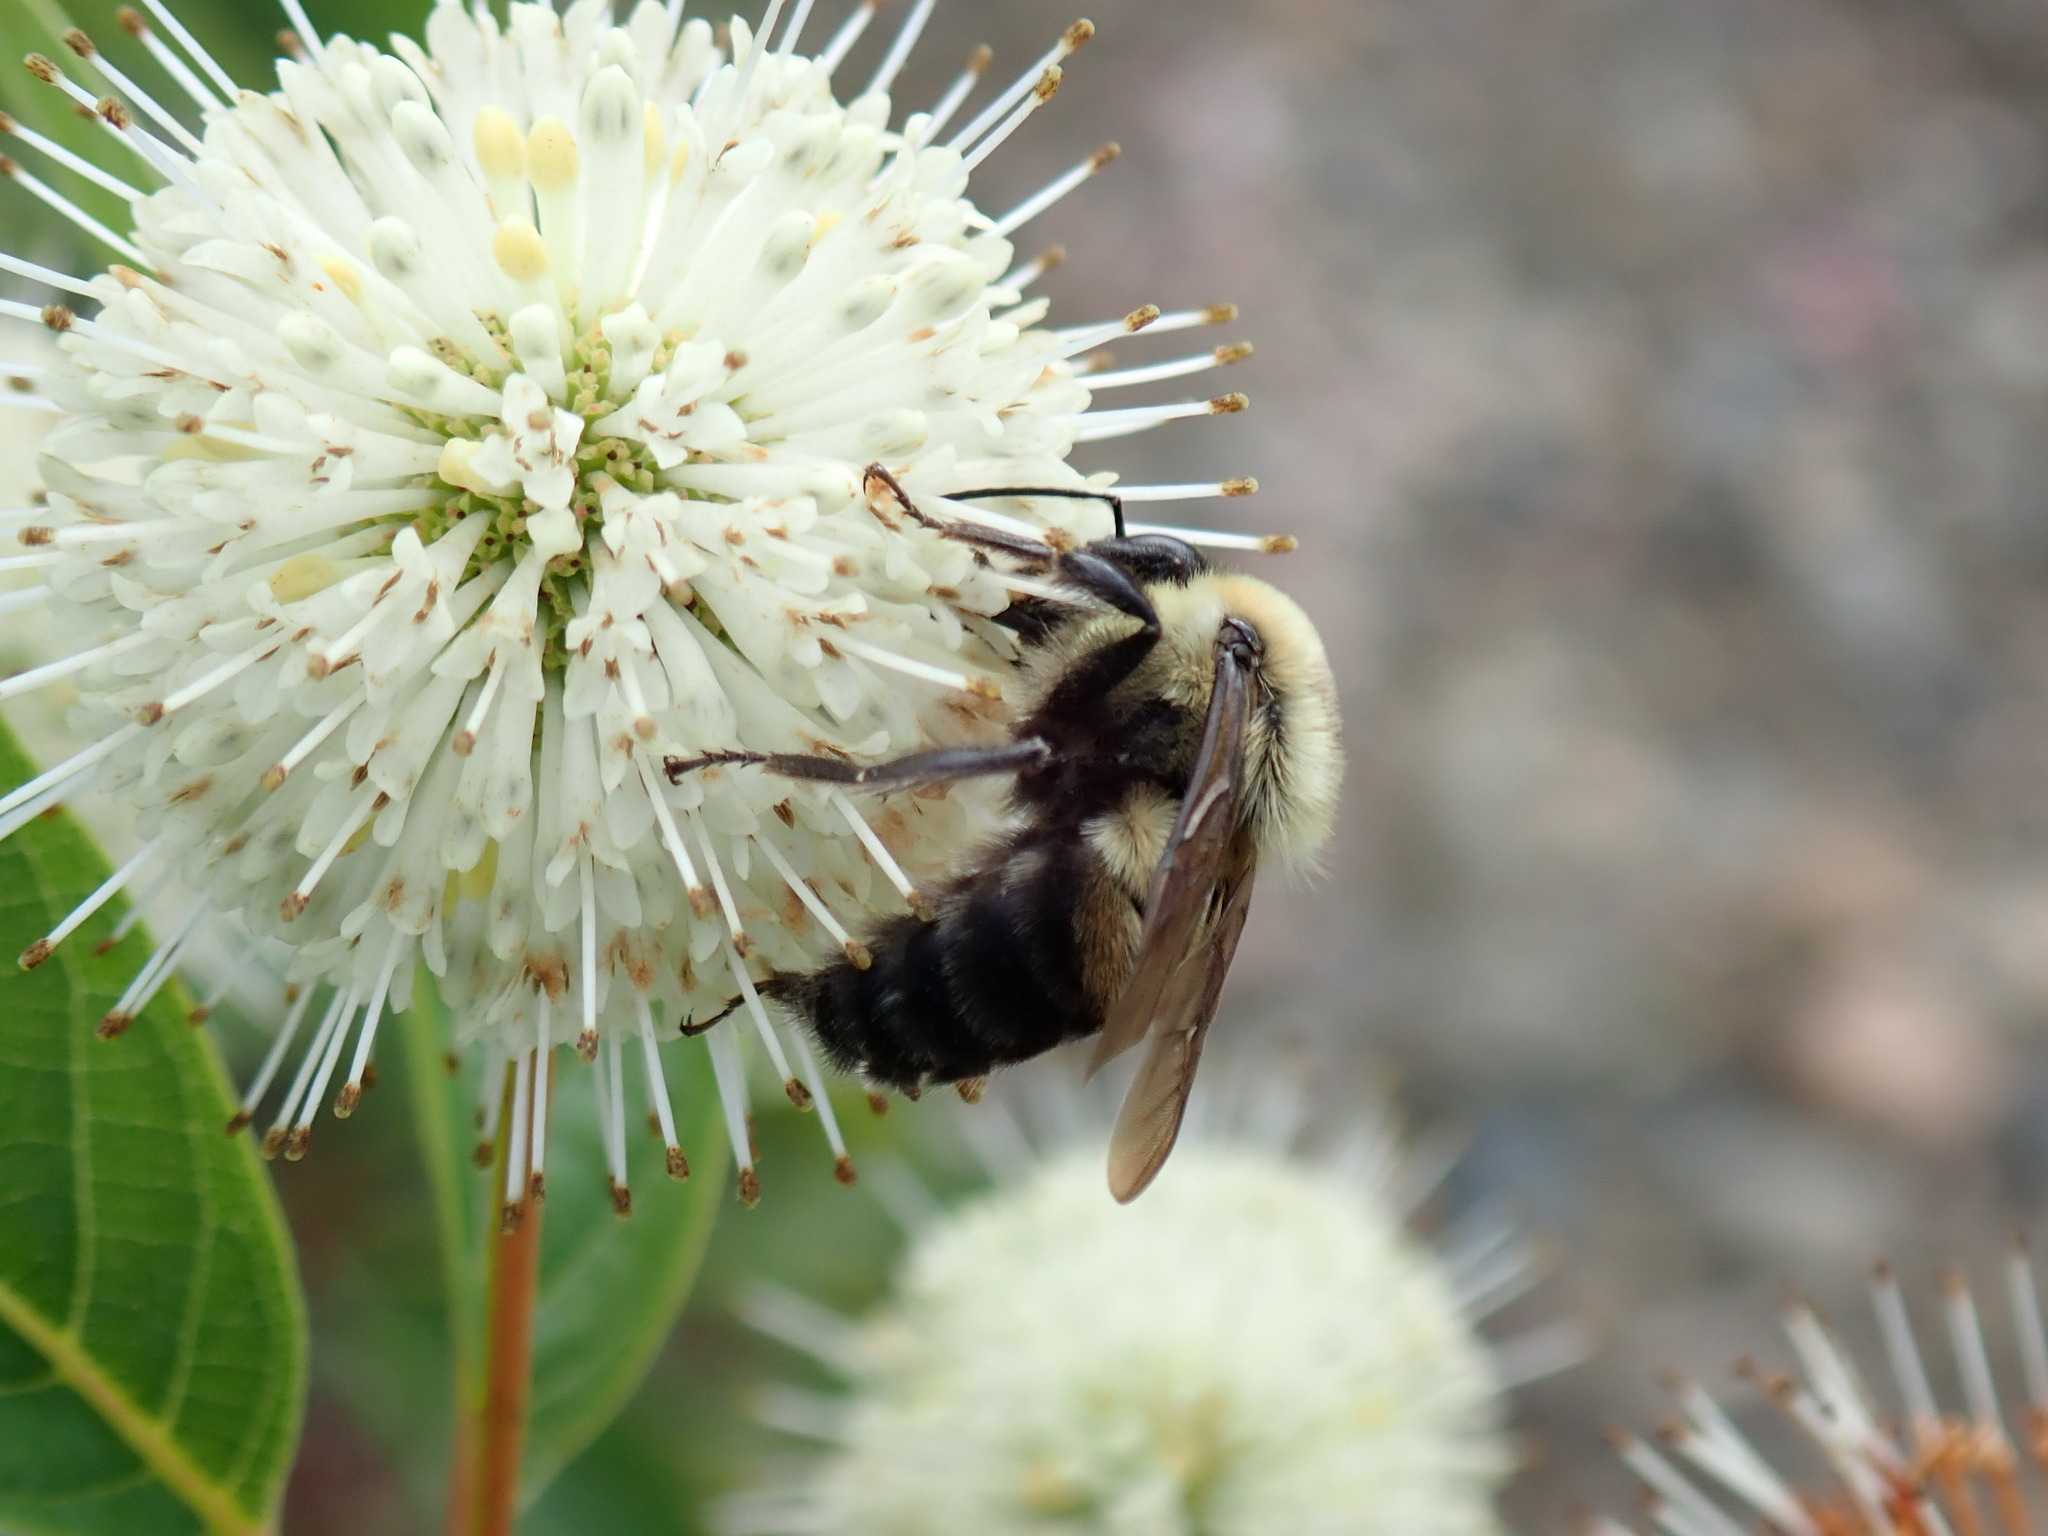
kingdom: Animalia
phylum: Arthropoda
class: Insecta
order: Hymenoptera
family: Apidae
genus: Bombus
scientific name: Bombus griseocollis
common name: Brown-belted bumble bee
